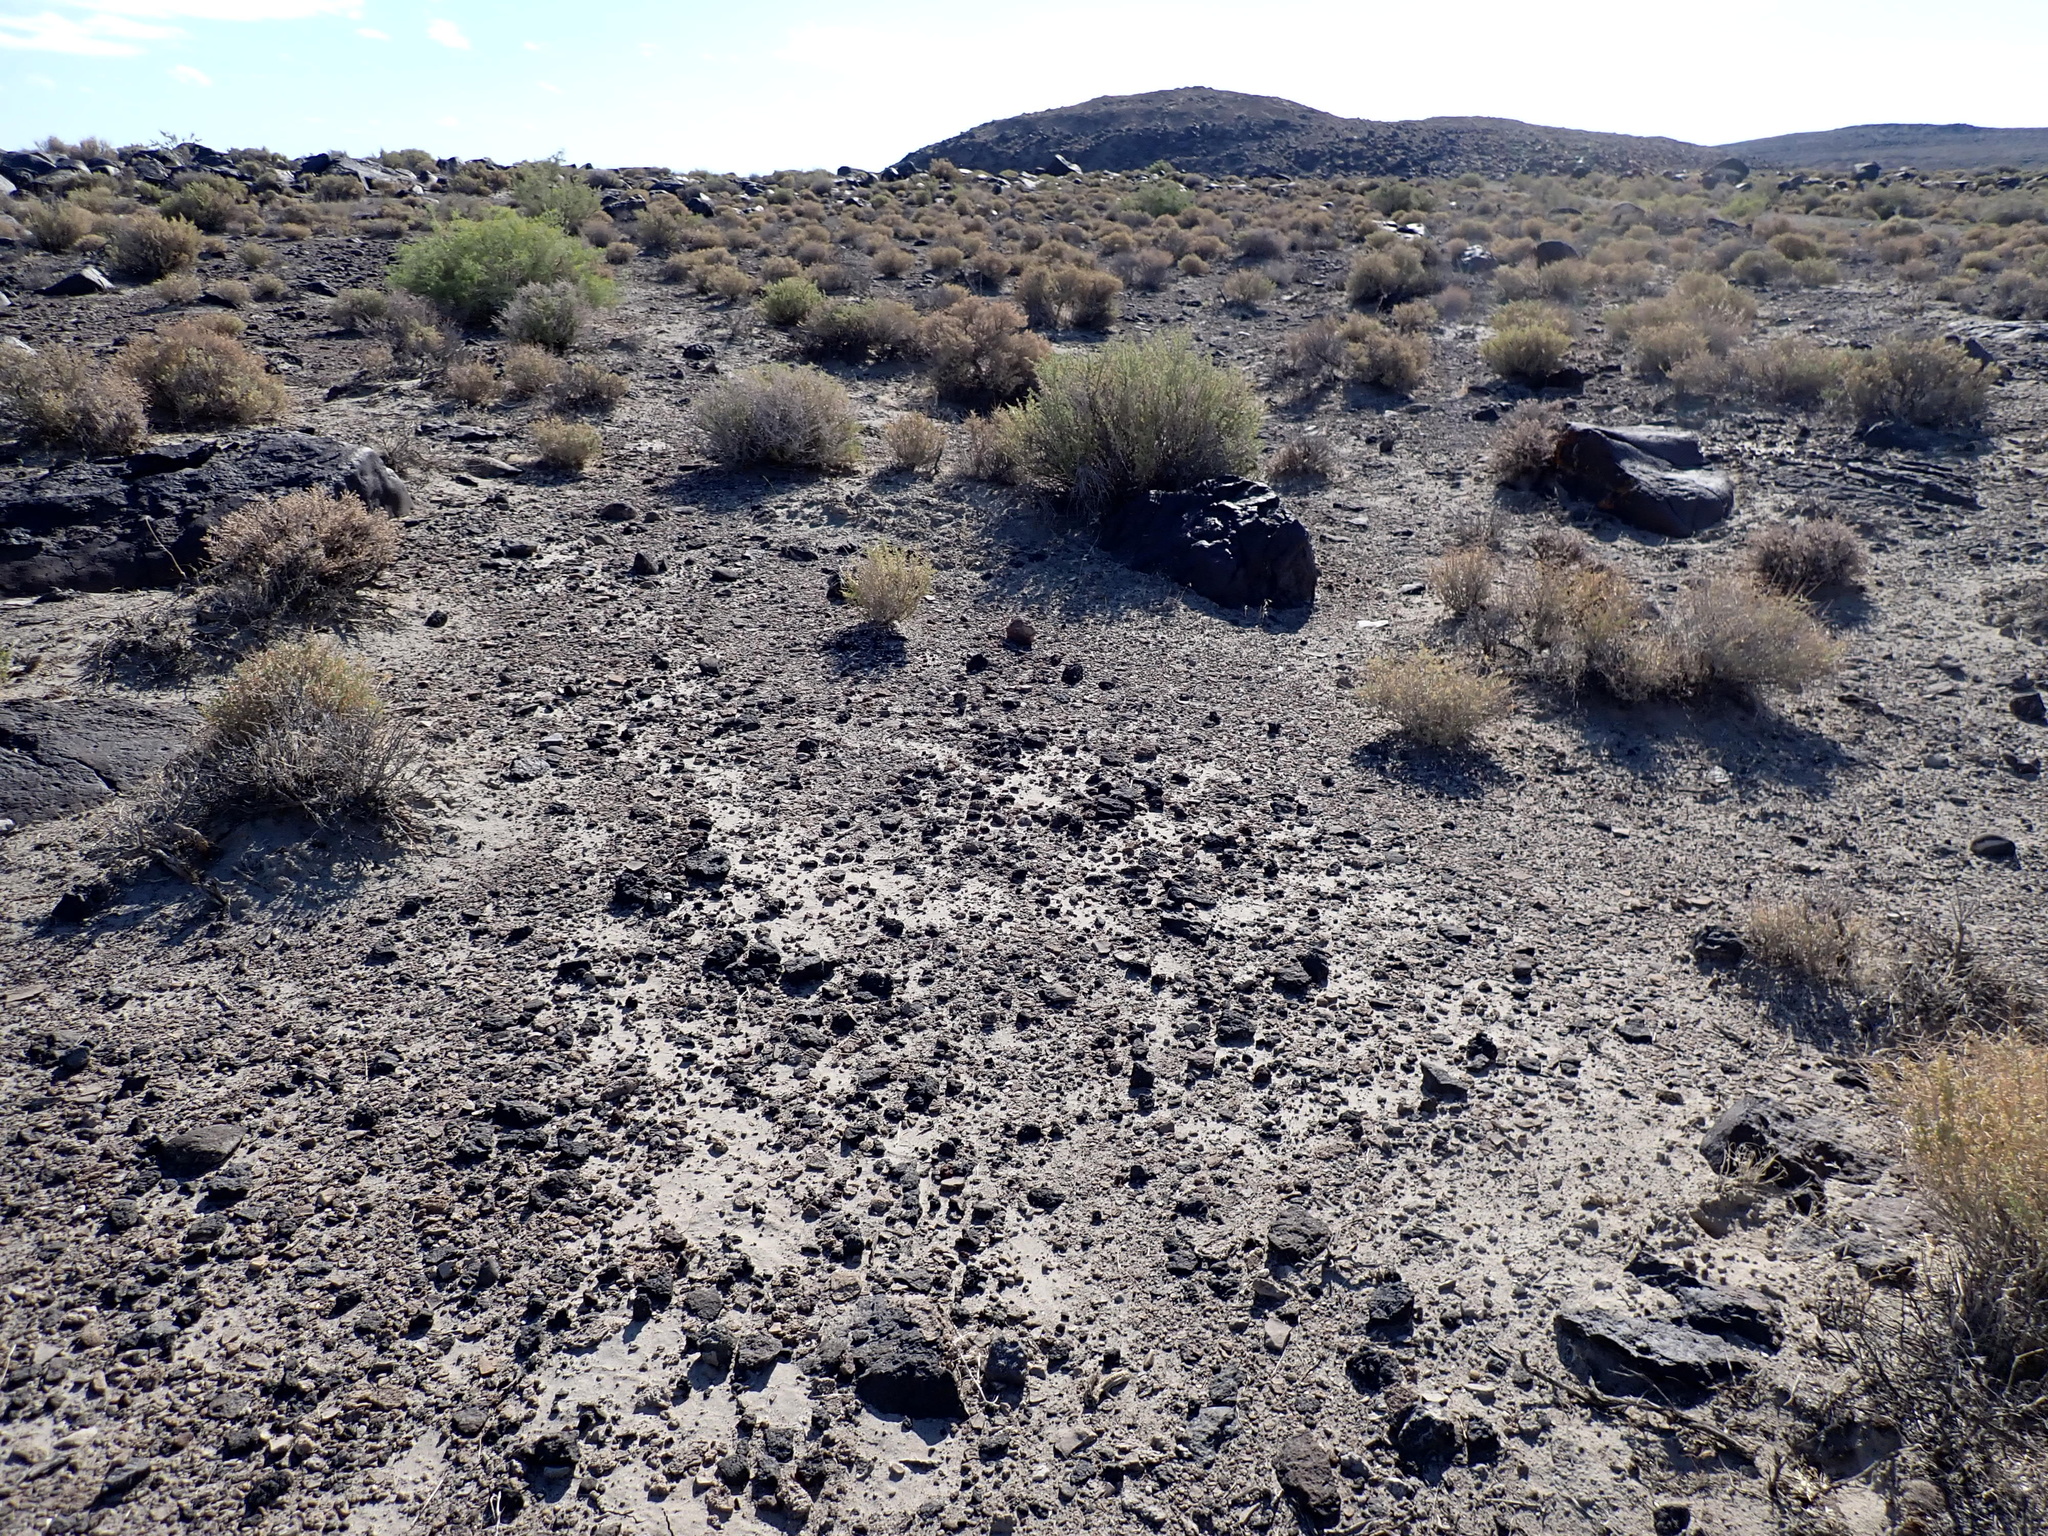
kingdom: Plantae
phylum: Tracheophyta
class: Magnoliopsida
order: Caryophyllales
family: Sarcobataceae
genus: Sarcobatus
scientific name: Sarcobatus vermiculatus
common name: Greasewood
